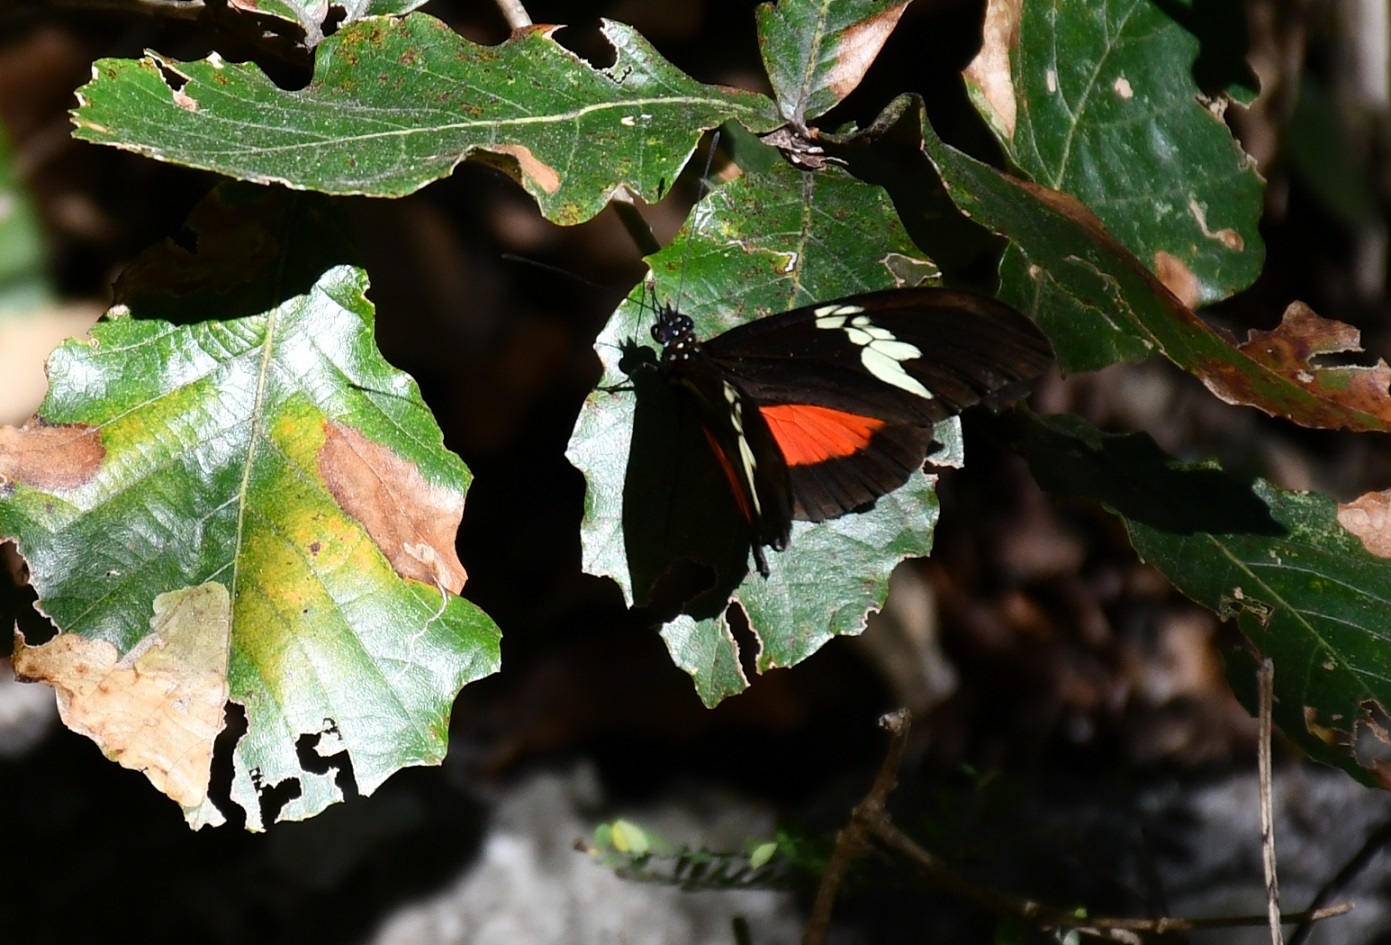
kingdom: Animalia
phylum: Arthropoda
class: Insecta
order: Lepidoptera
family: Nymphalidae
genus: Heliconius
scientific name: Heliconius hortense
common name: Mexican longwing
